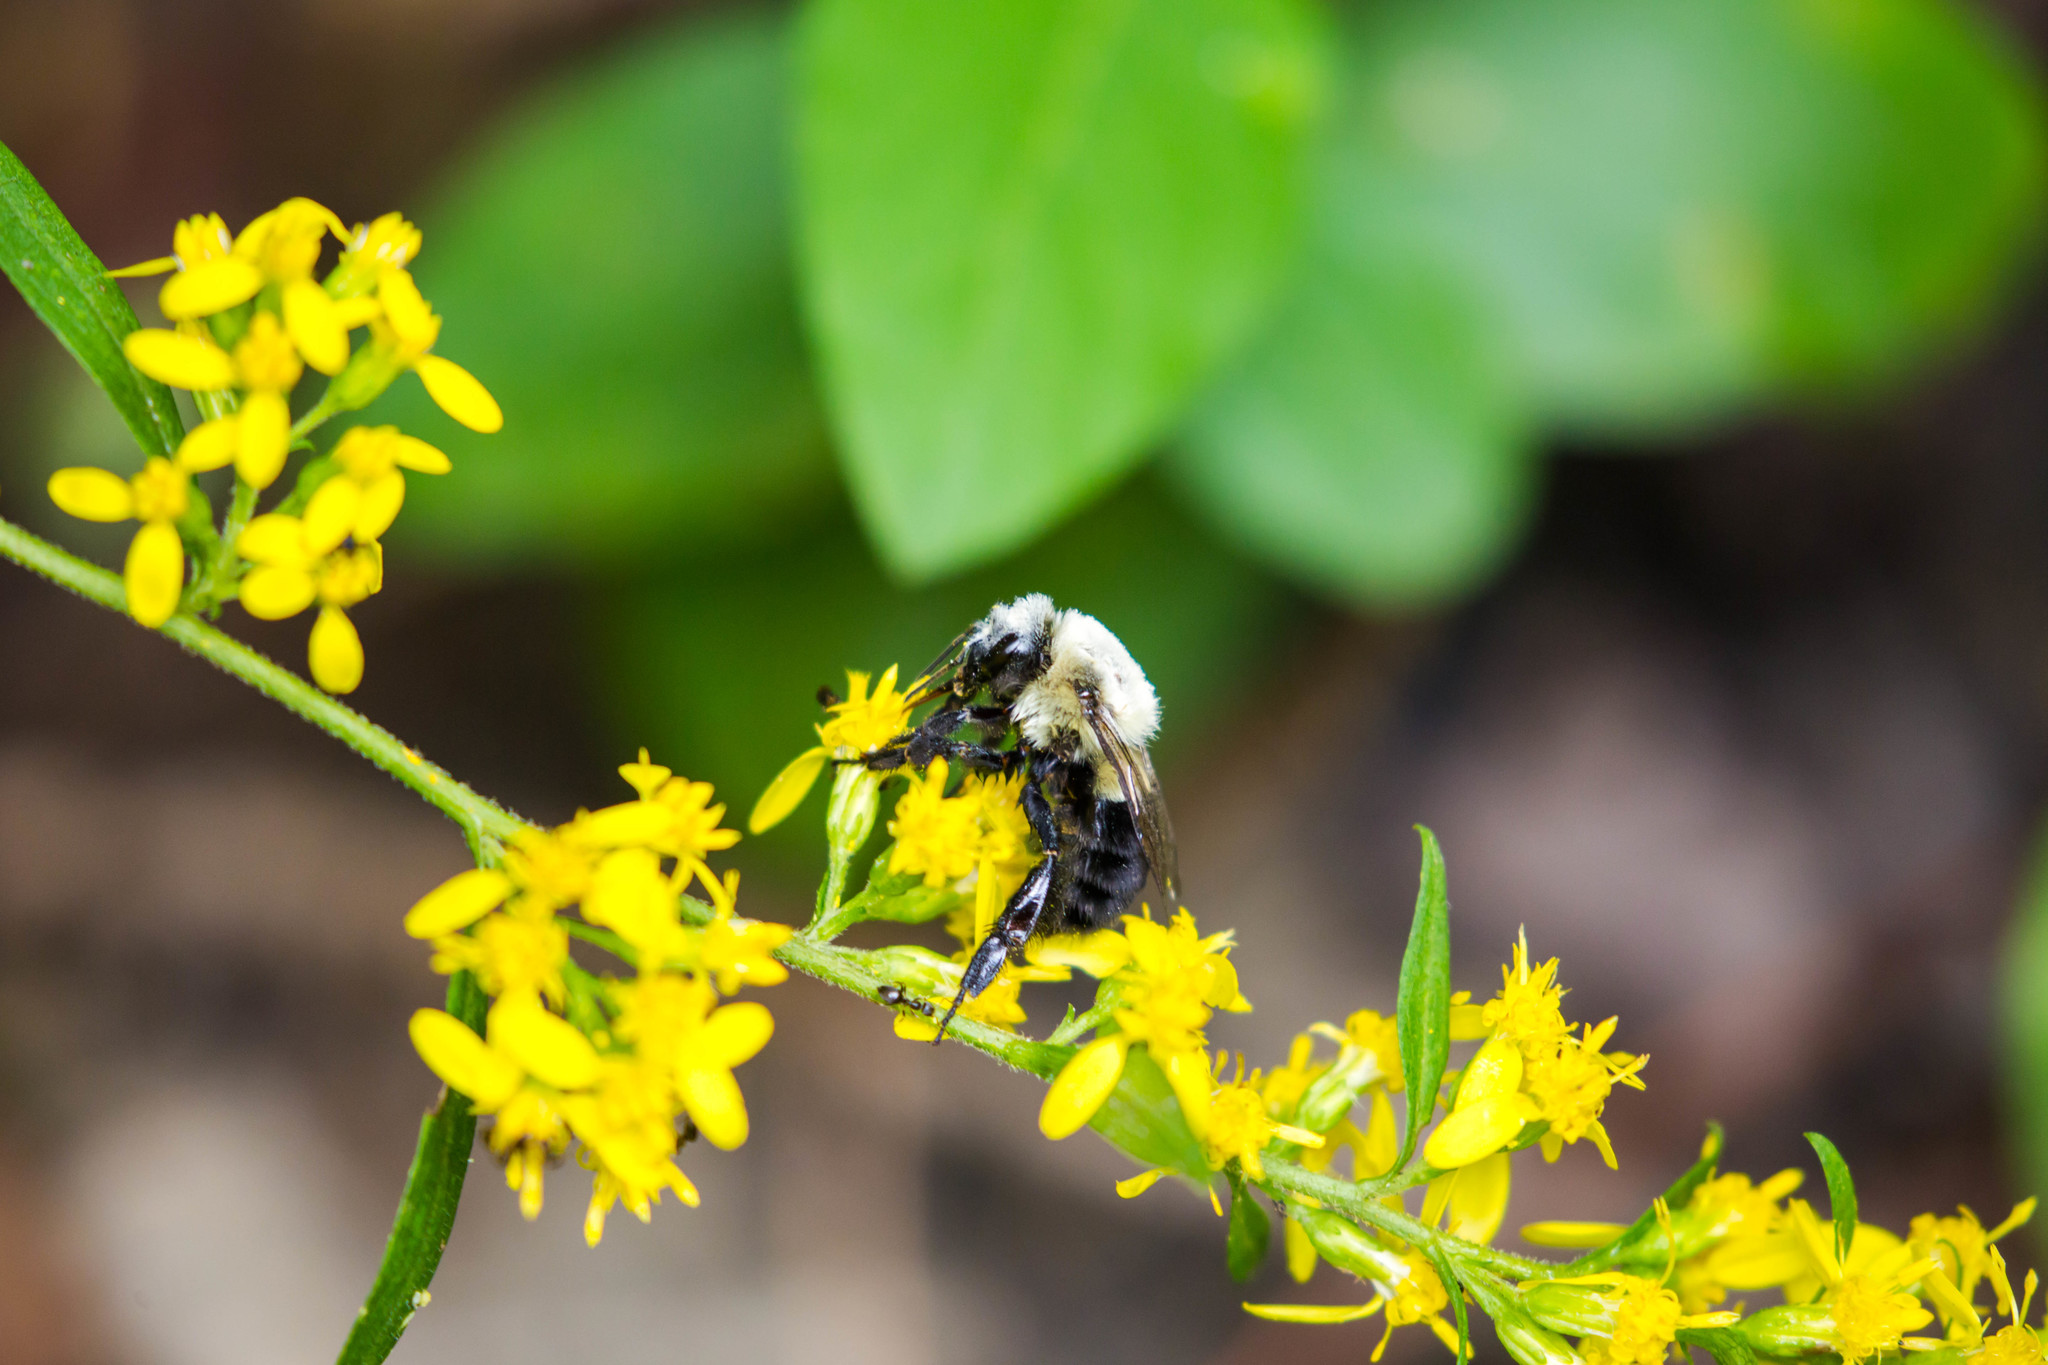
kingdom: Animalia
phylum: Arthropoda
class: Insecta
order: Hymenoptera
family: Apidae
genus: Bombus
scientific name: Bombus impatiens
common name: Common eastern bumble bee
